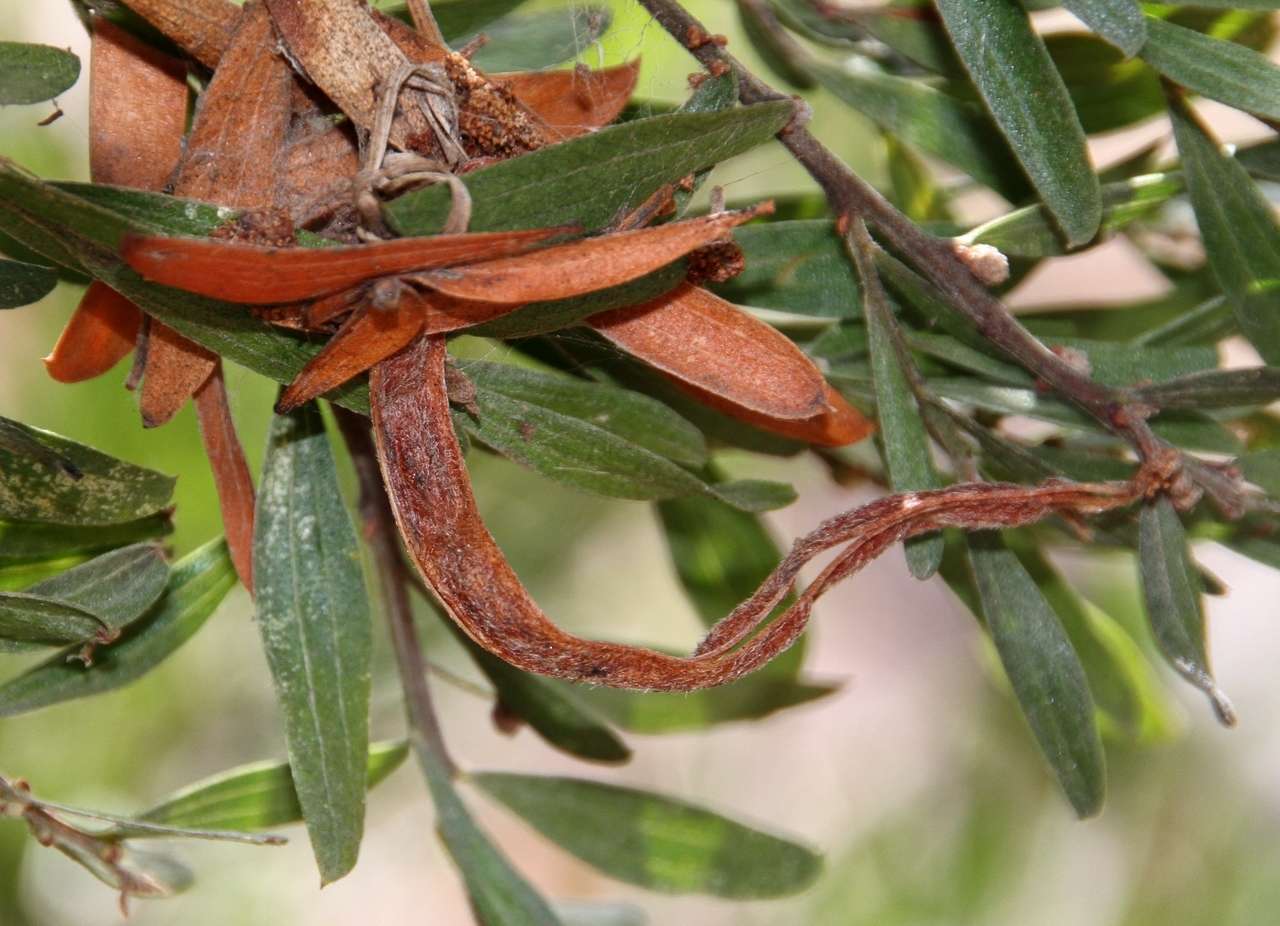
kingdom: Plantae
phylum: Tracheophyta
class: Magnoliopsida
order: Fabales
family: Fabaceae
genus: Acacia
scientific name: Acacia rostriformis
